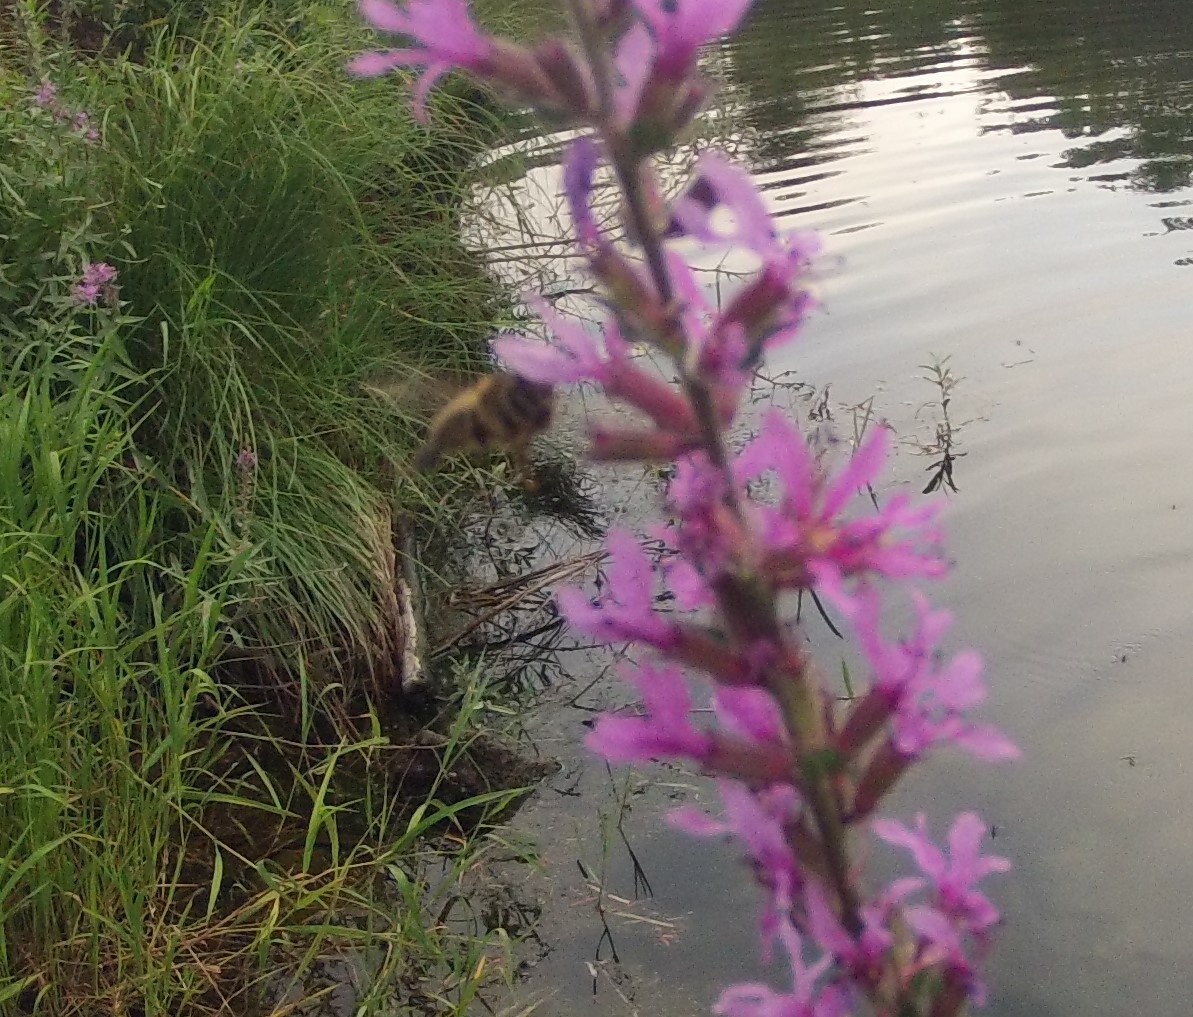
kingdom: Animalia
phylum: Arthropoda
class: Insecta
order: Hymenoptera
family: Apidae
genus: Apis
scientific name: Apis mellifera
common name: Honey bee
